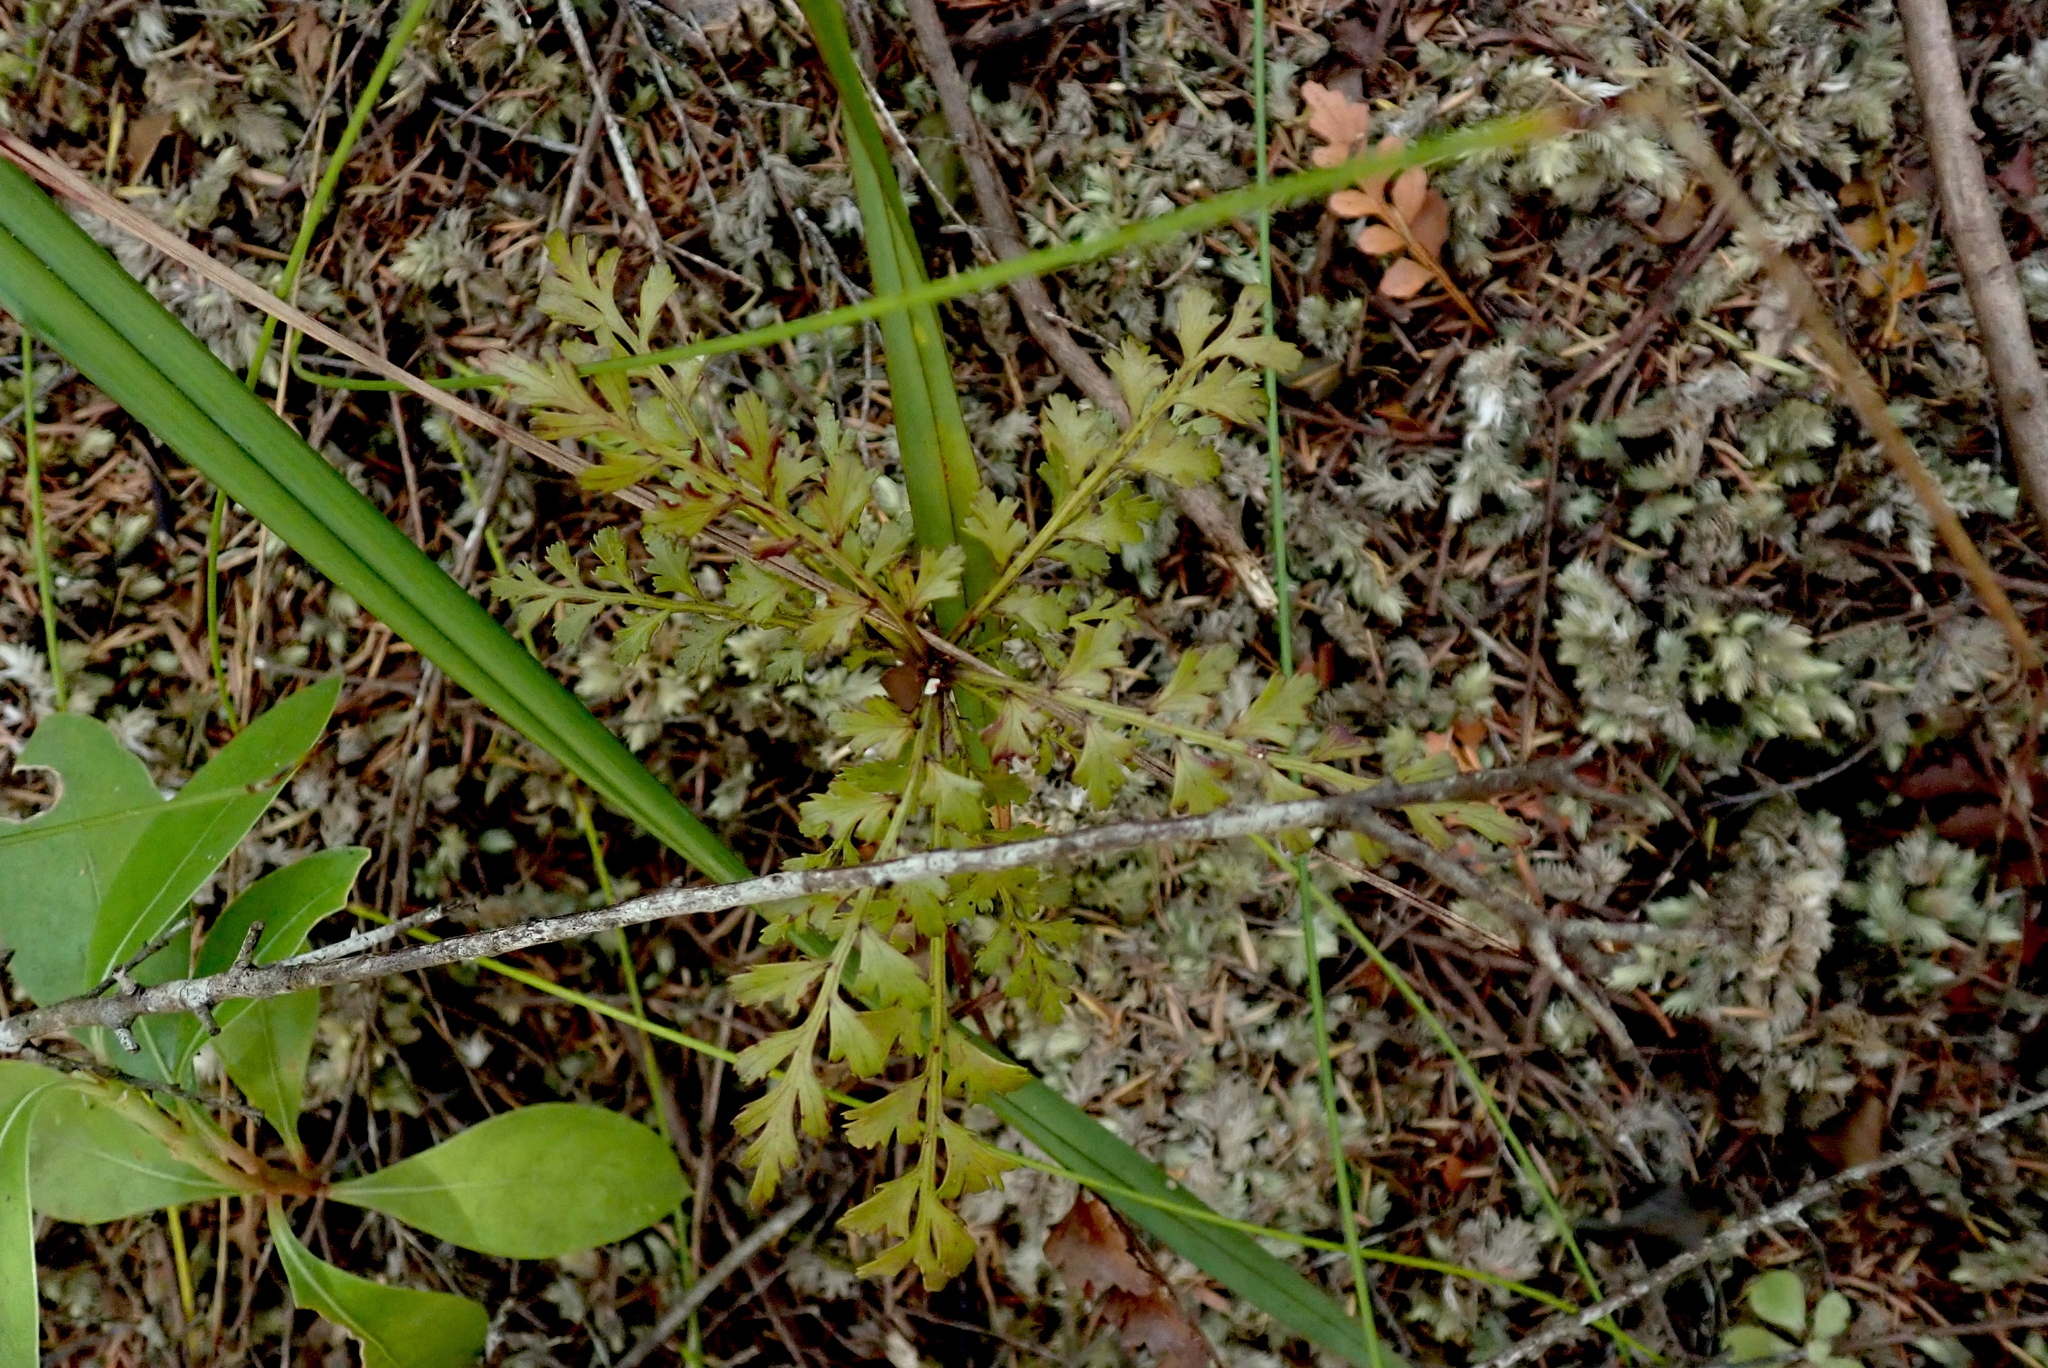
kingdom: Plantae
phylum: Tracheophyta
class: Pinopsida
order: Pinales
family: Phyllocladaceae
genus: Phyllocladus
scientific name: Phyllocladus trichomanoides
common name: Celery pine
